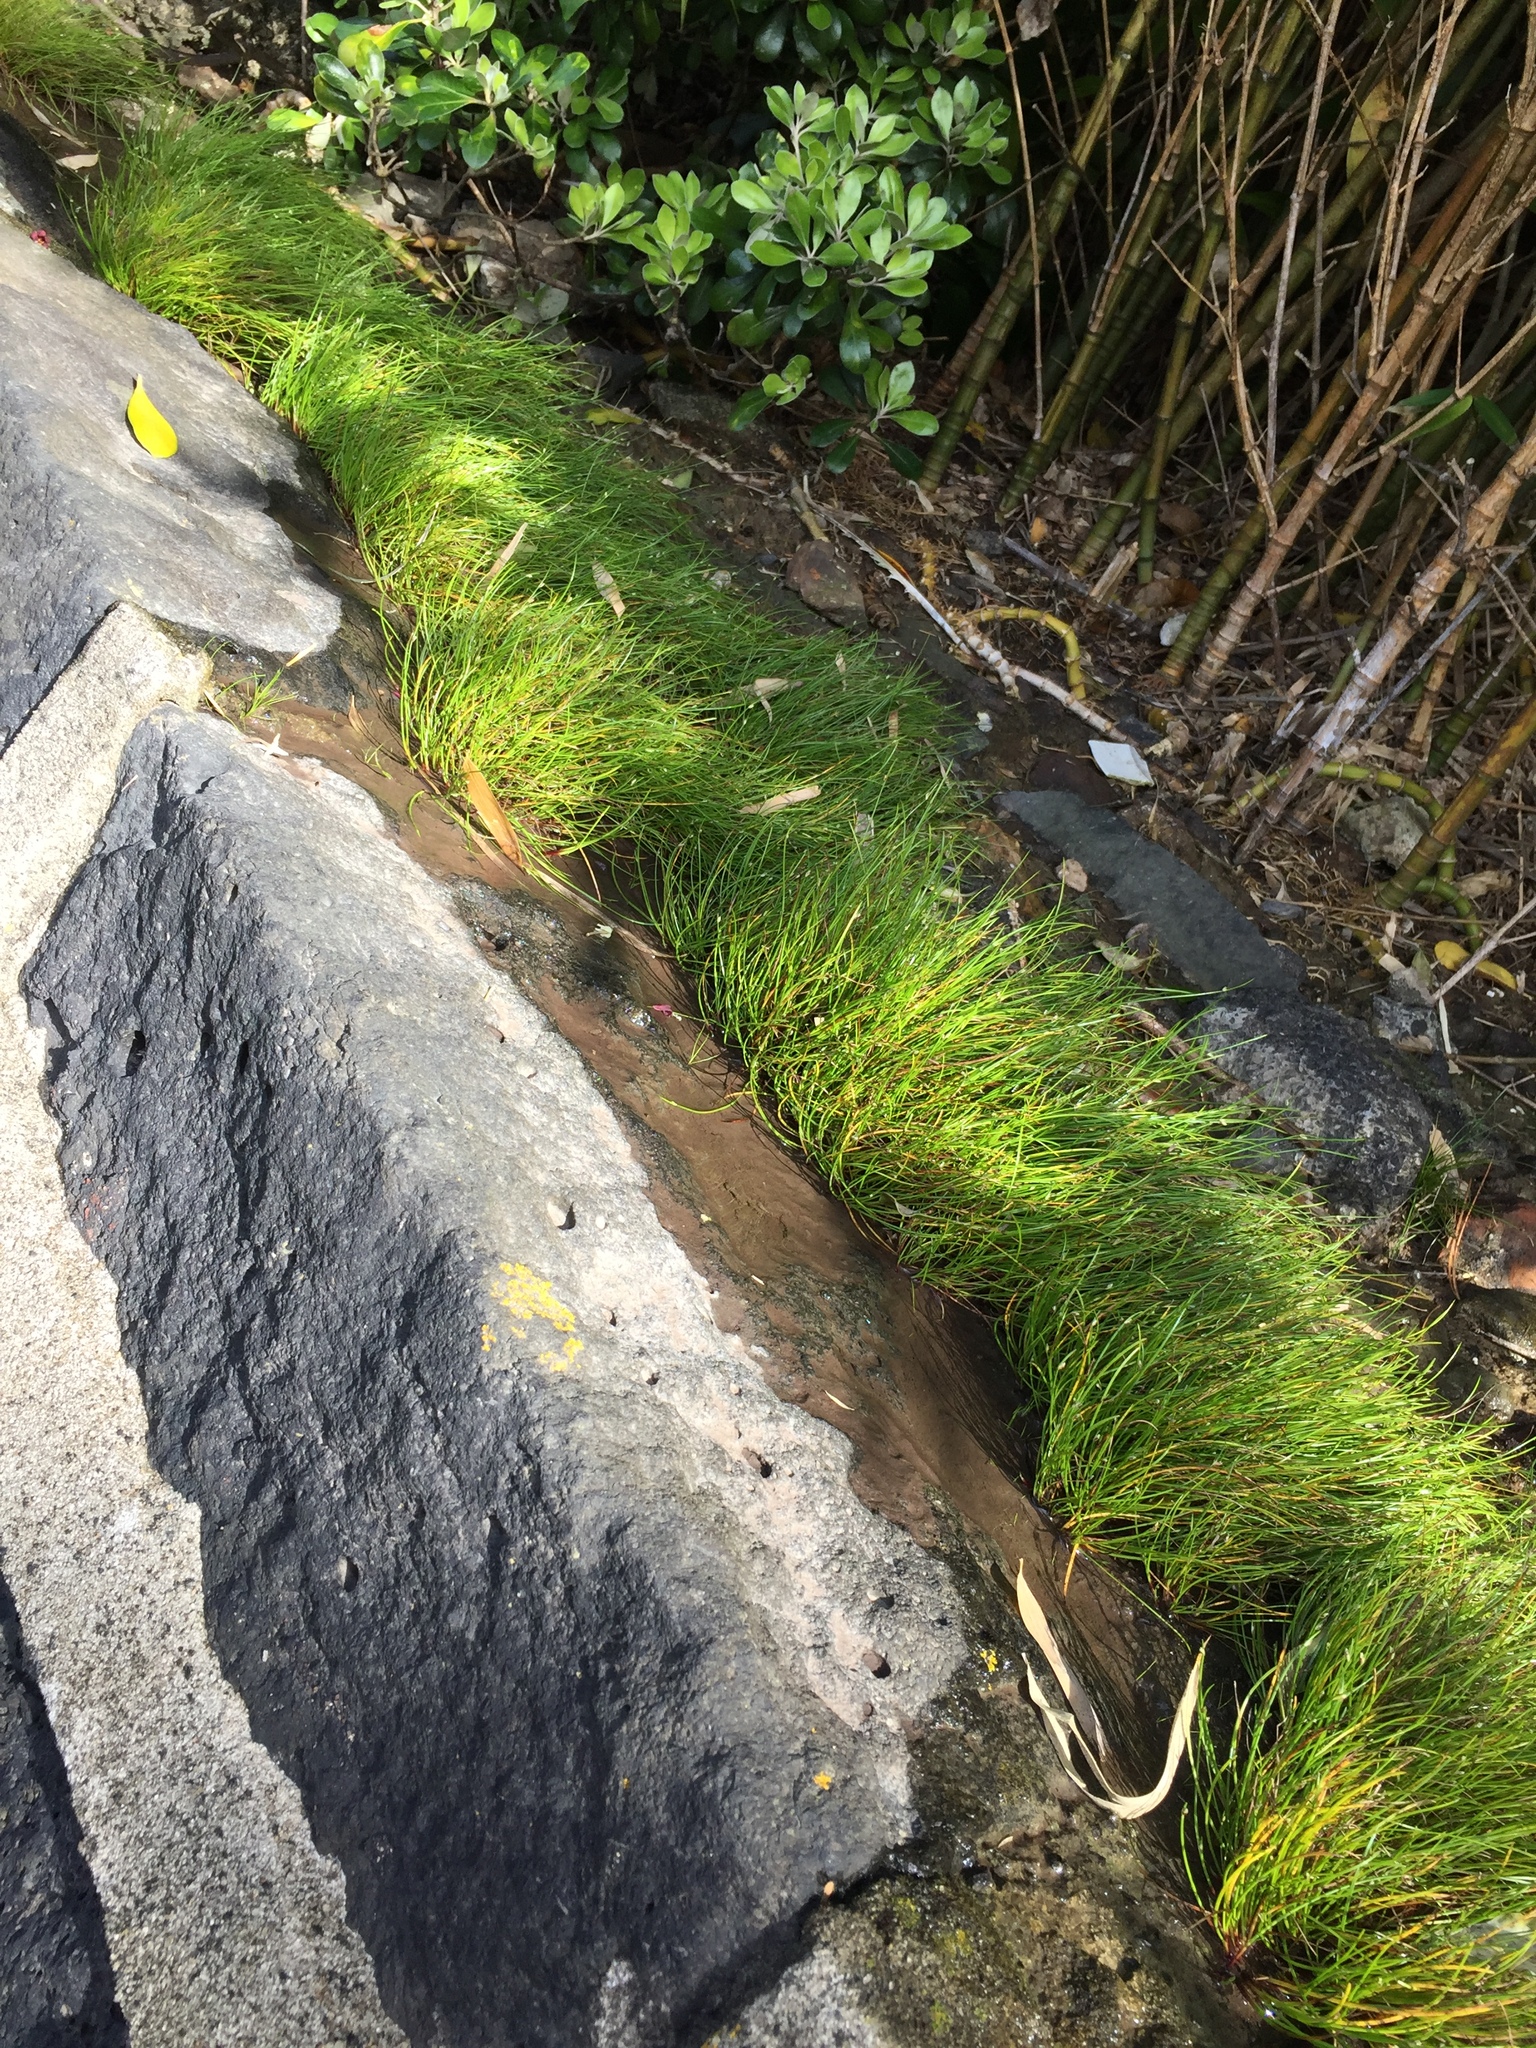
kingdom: Plantae
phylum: Tracheophyta
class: Liliopsida
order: Poales
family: Cyperaceae
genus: Isolepis
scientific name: Isolepis cernua
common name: Slender club-rush
